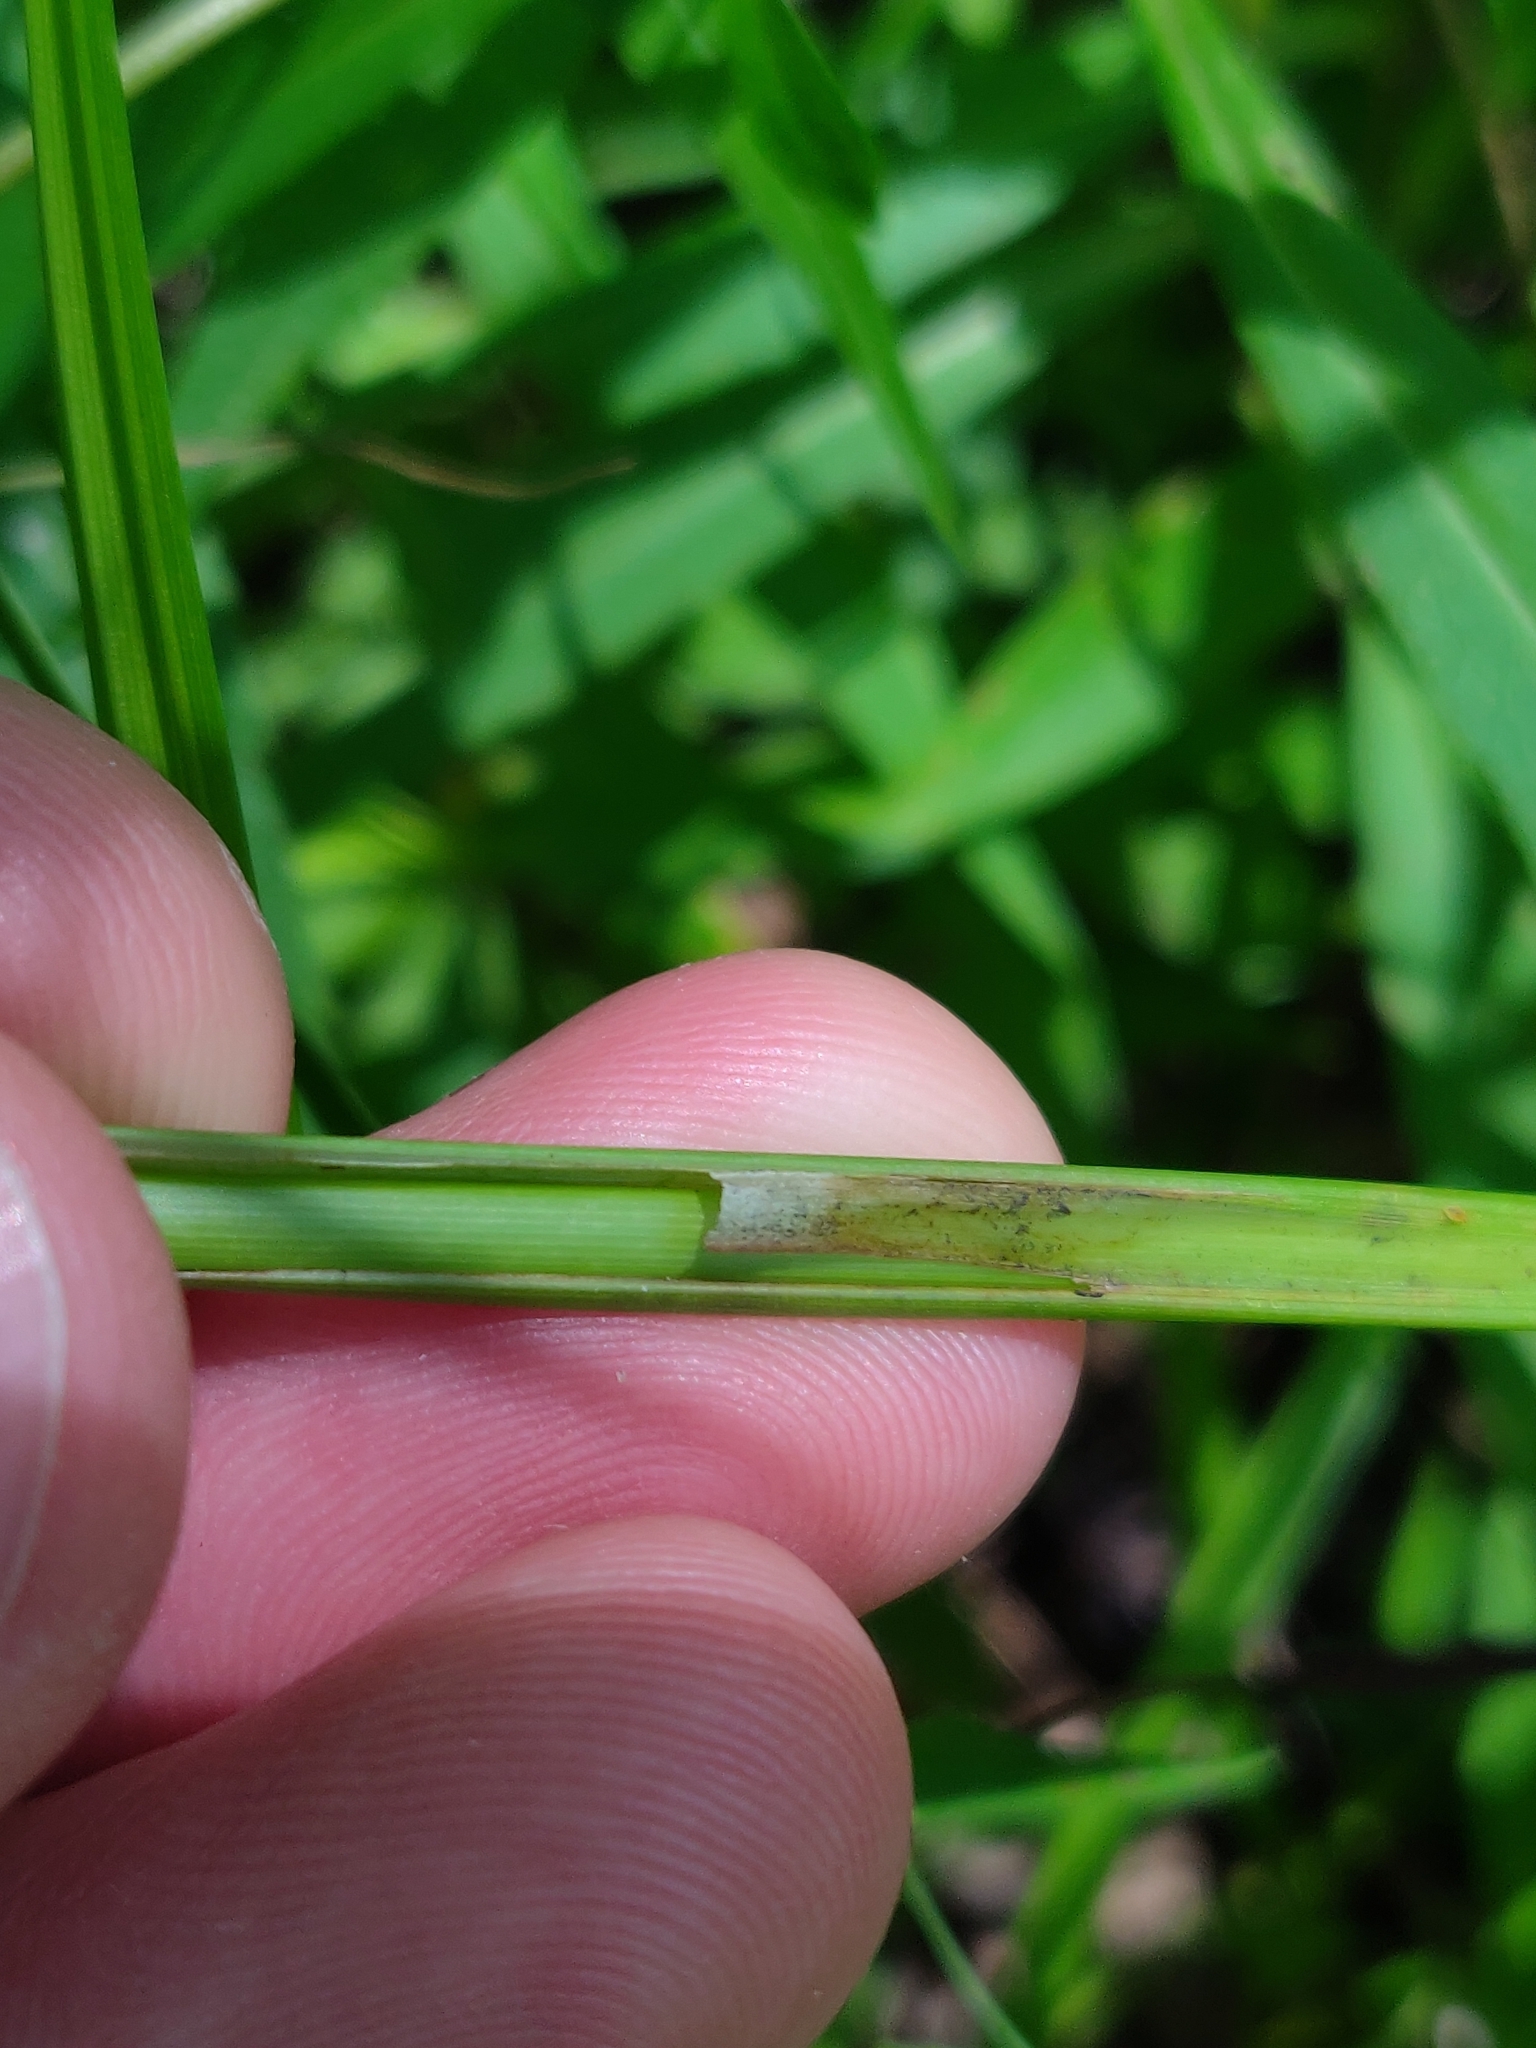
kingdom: Plantae
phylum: Tracheophyta
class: Liliopsida
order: Poales
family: Cyperaceae
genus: Carex
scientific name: Carex lupulina
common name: Hop sedge
